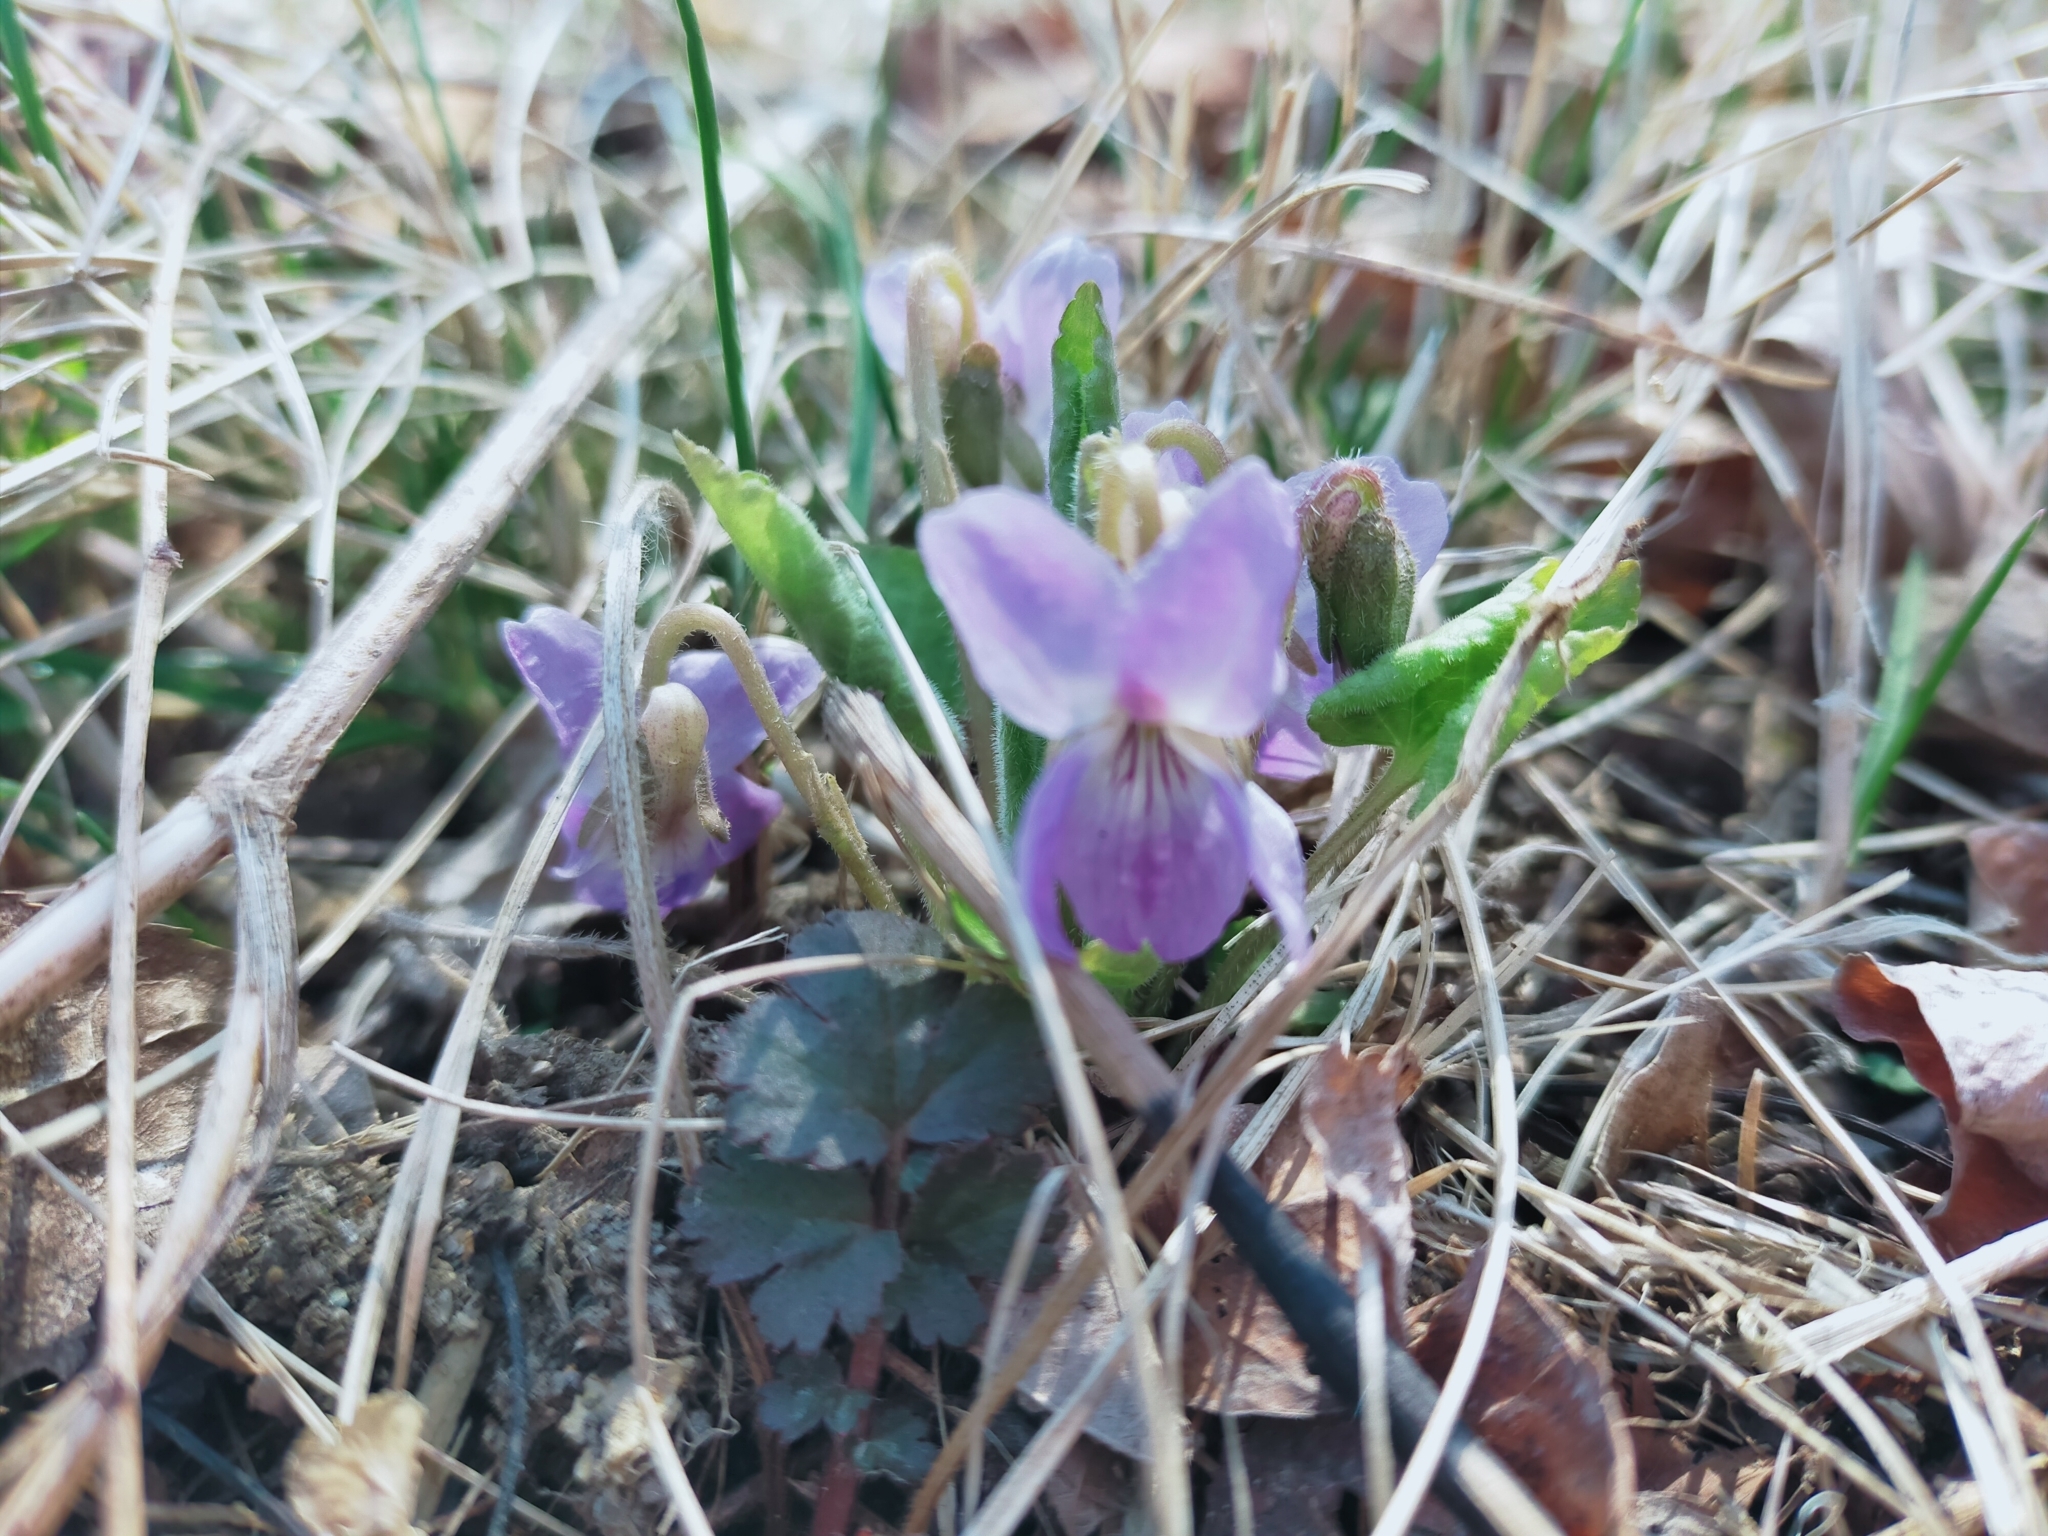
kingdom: Plantae
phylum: Tracheophyta
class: Magnoliopsida
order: Malpighiales
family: Violaceae
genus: Viola
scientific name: Viola prionantha
